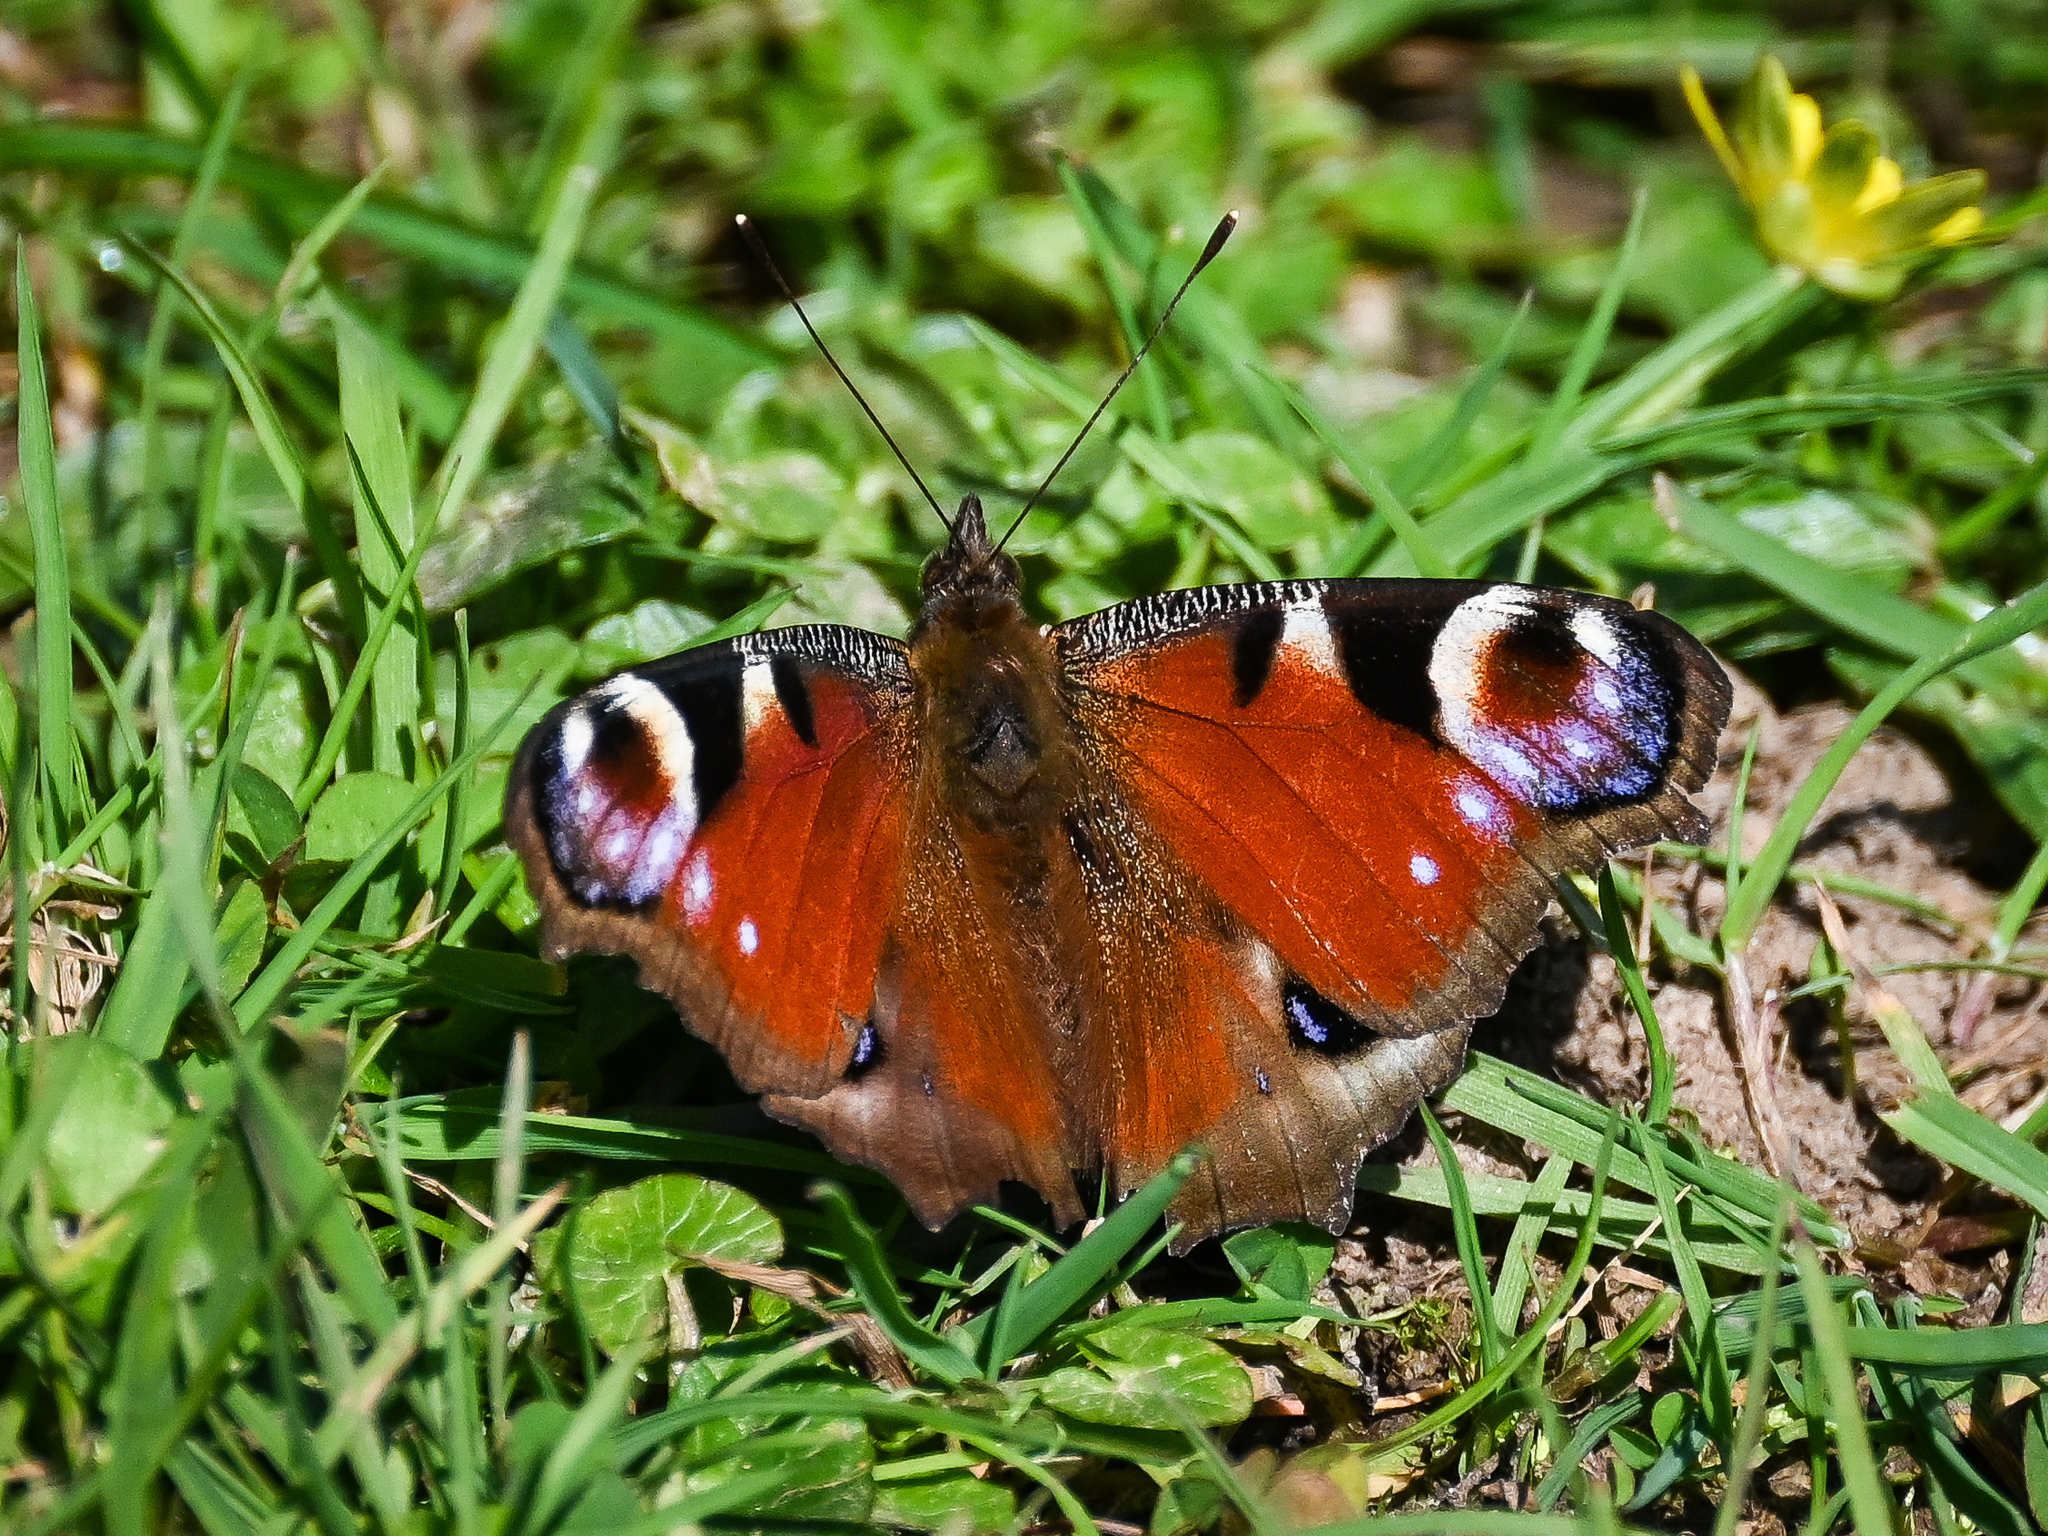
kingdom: Animalia
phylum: Arthropoda
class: Insecta
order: Lepidoptera
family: Nymphalidae
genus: Aglais
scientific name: Aglais io
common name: Peacock
